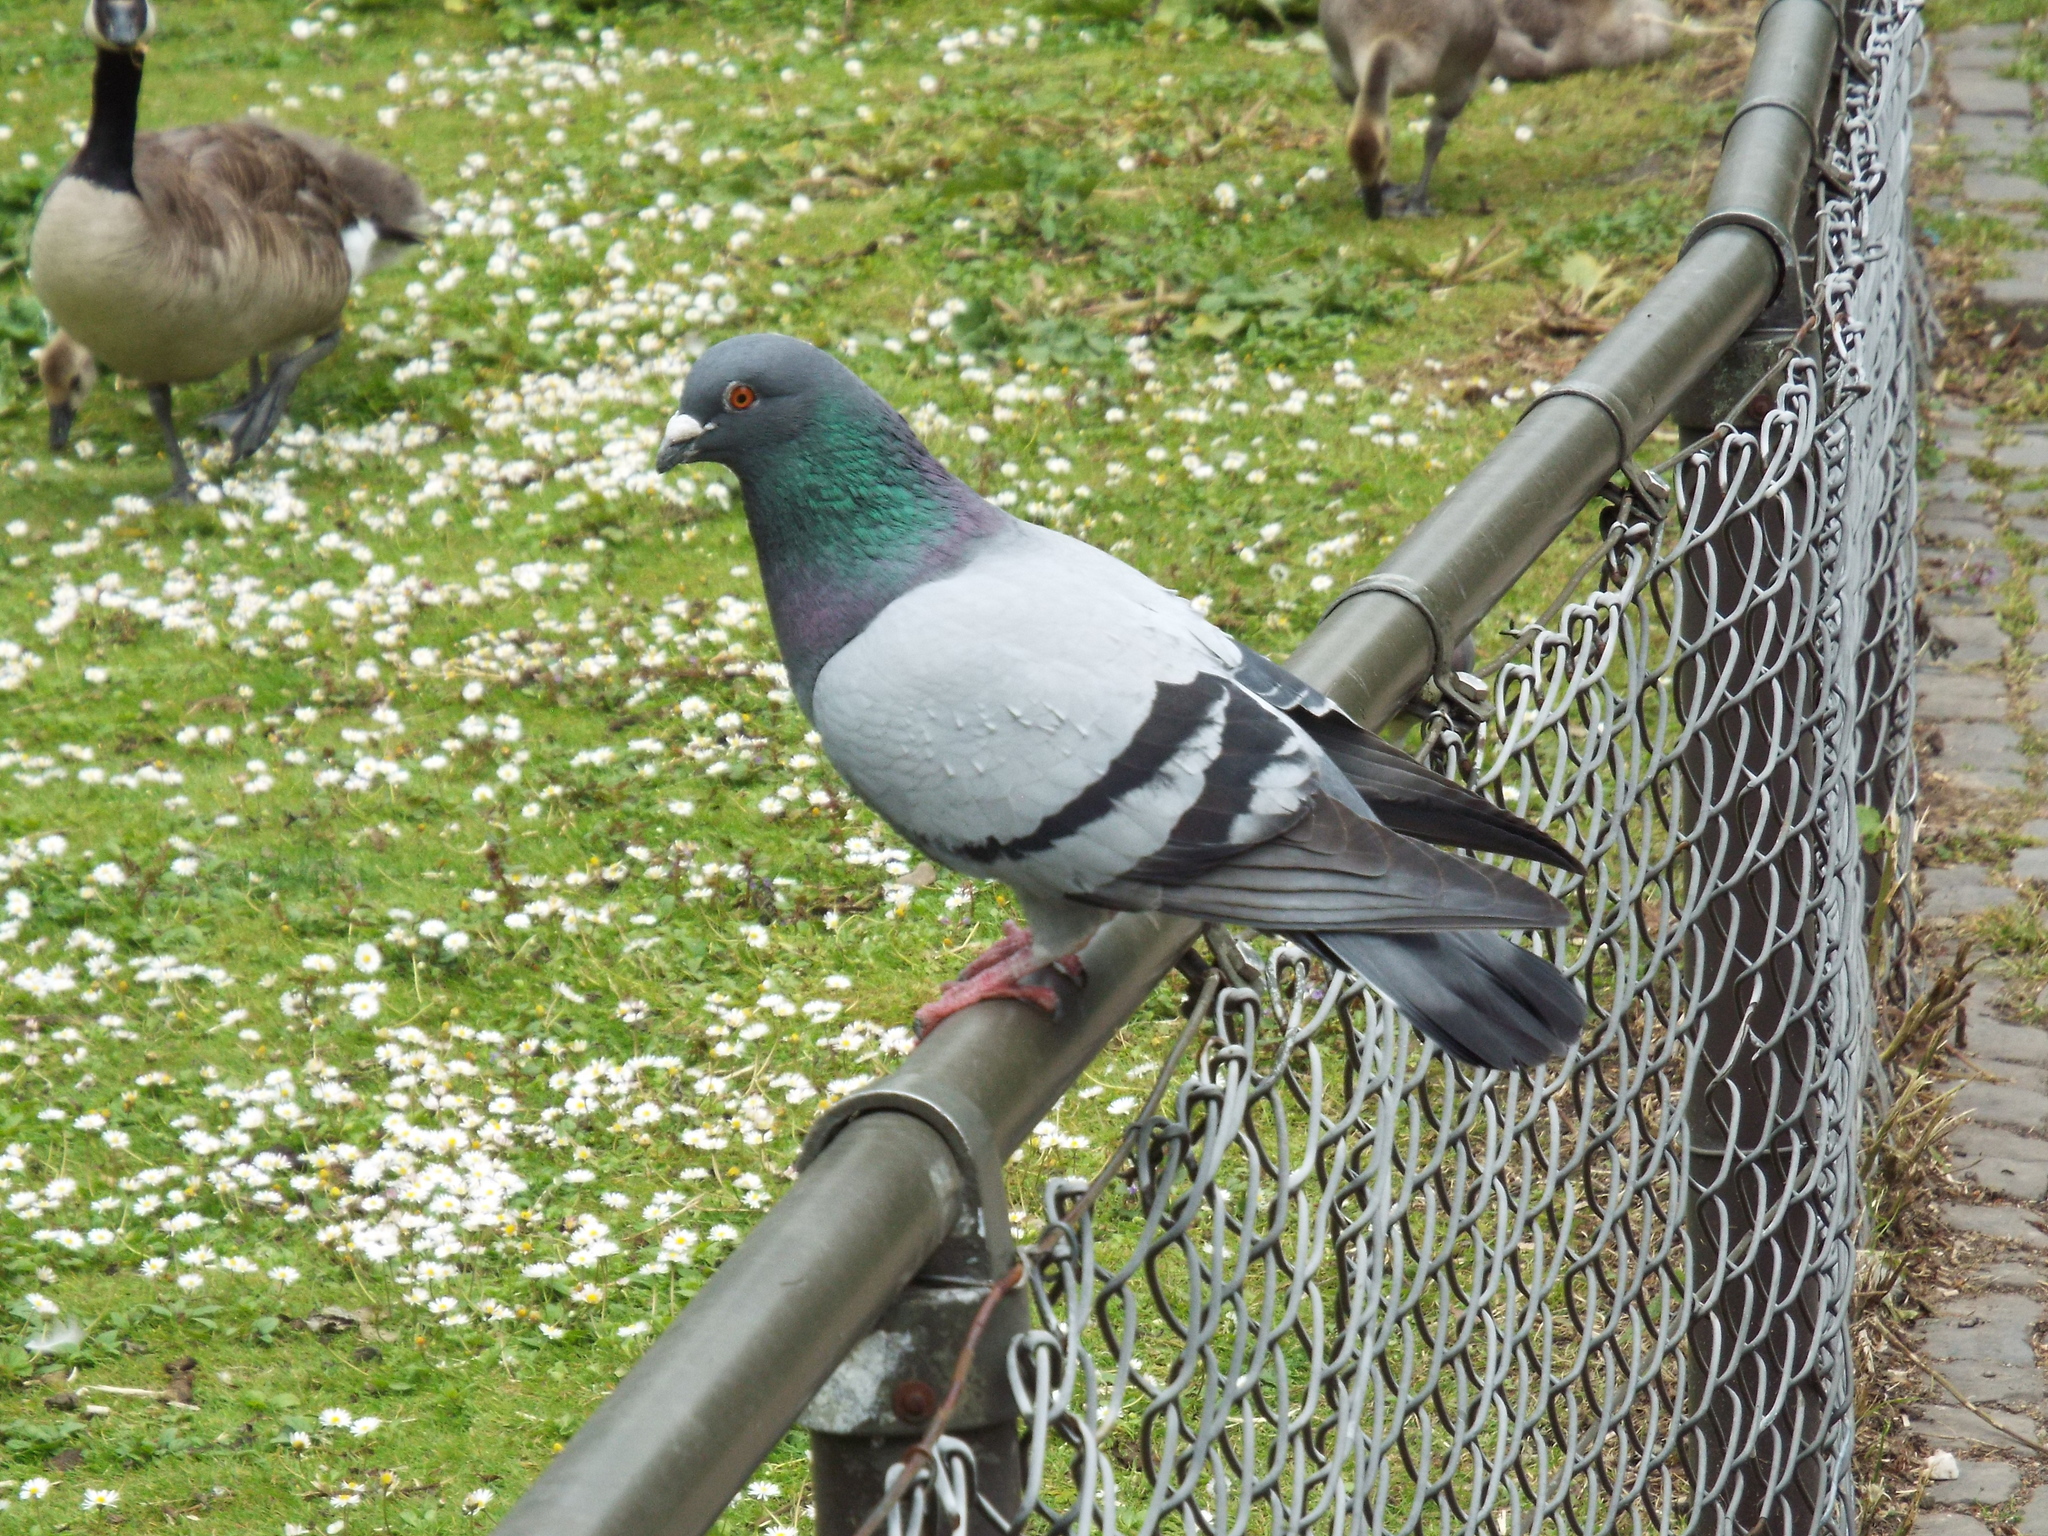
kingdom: Animalia
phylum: Chordata
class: Aves
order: Columbiformes
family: Columbidae
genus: Columba
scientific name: Columba livia
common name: Rock pigeon
